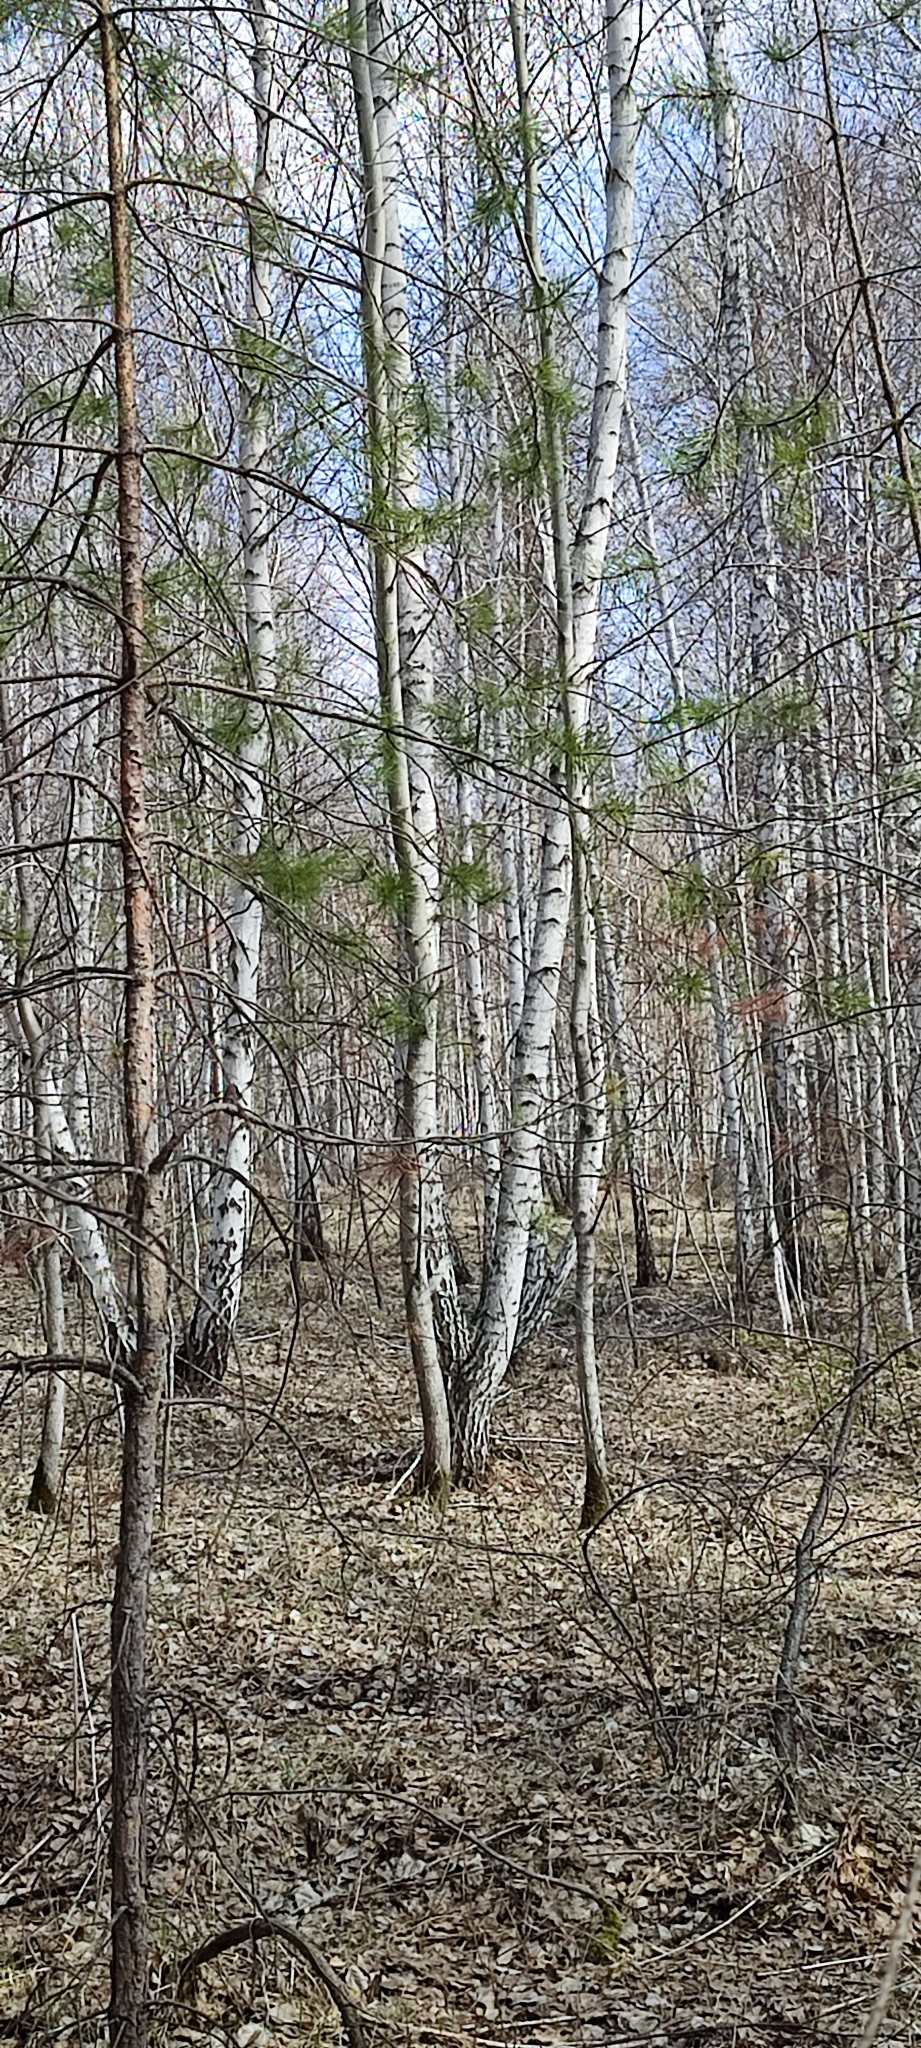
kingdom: Plantae
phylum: Tracheophyta
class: Magnoliopsida
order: Malpighiales
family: Salicaceae
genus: Populus
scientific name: Populus tremula
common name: European aspen
